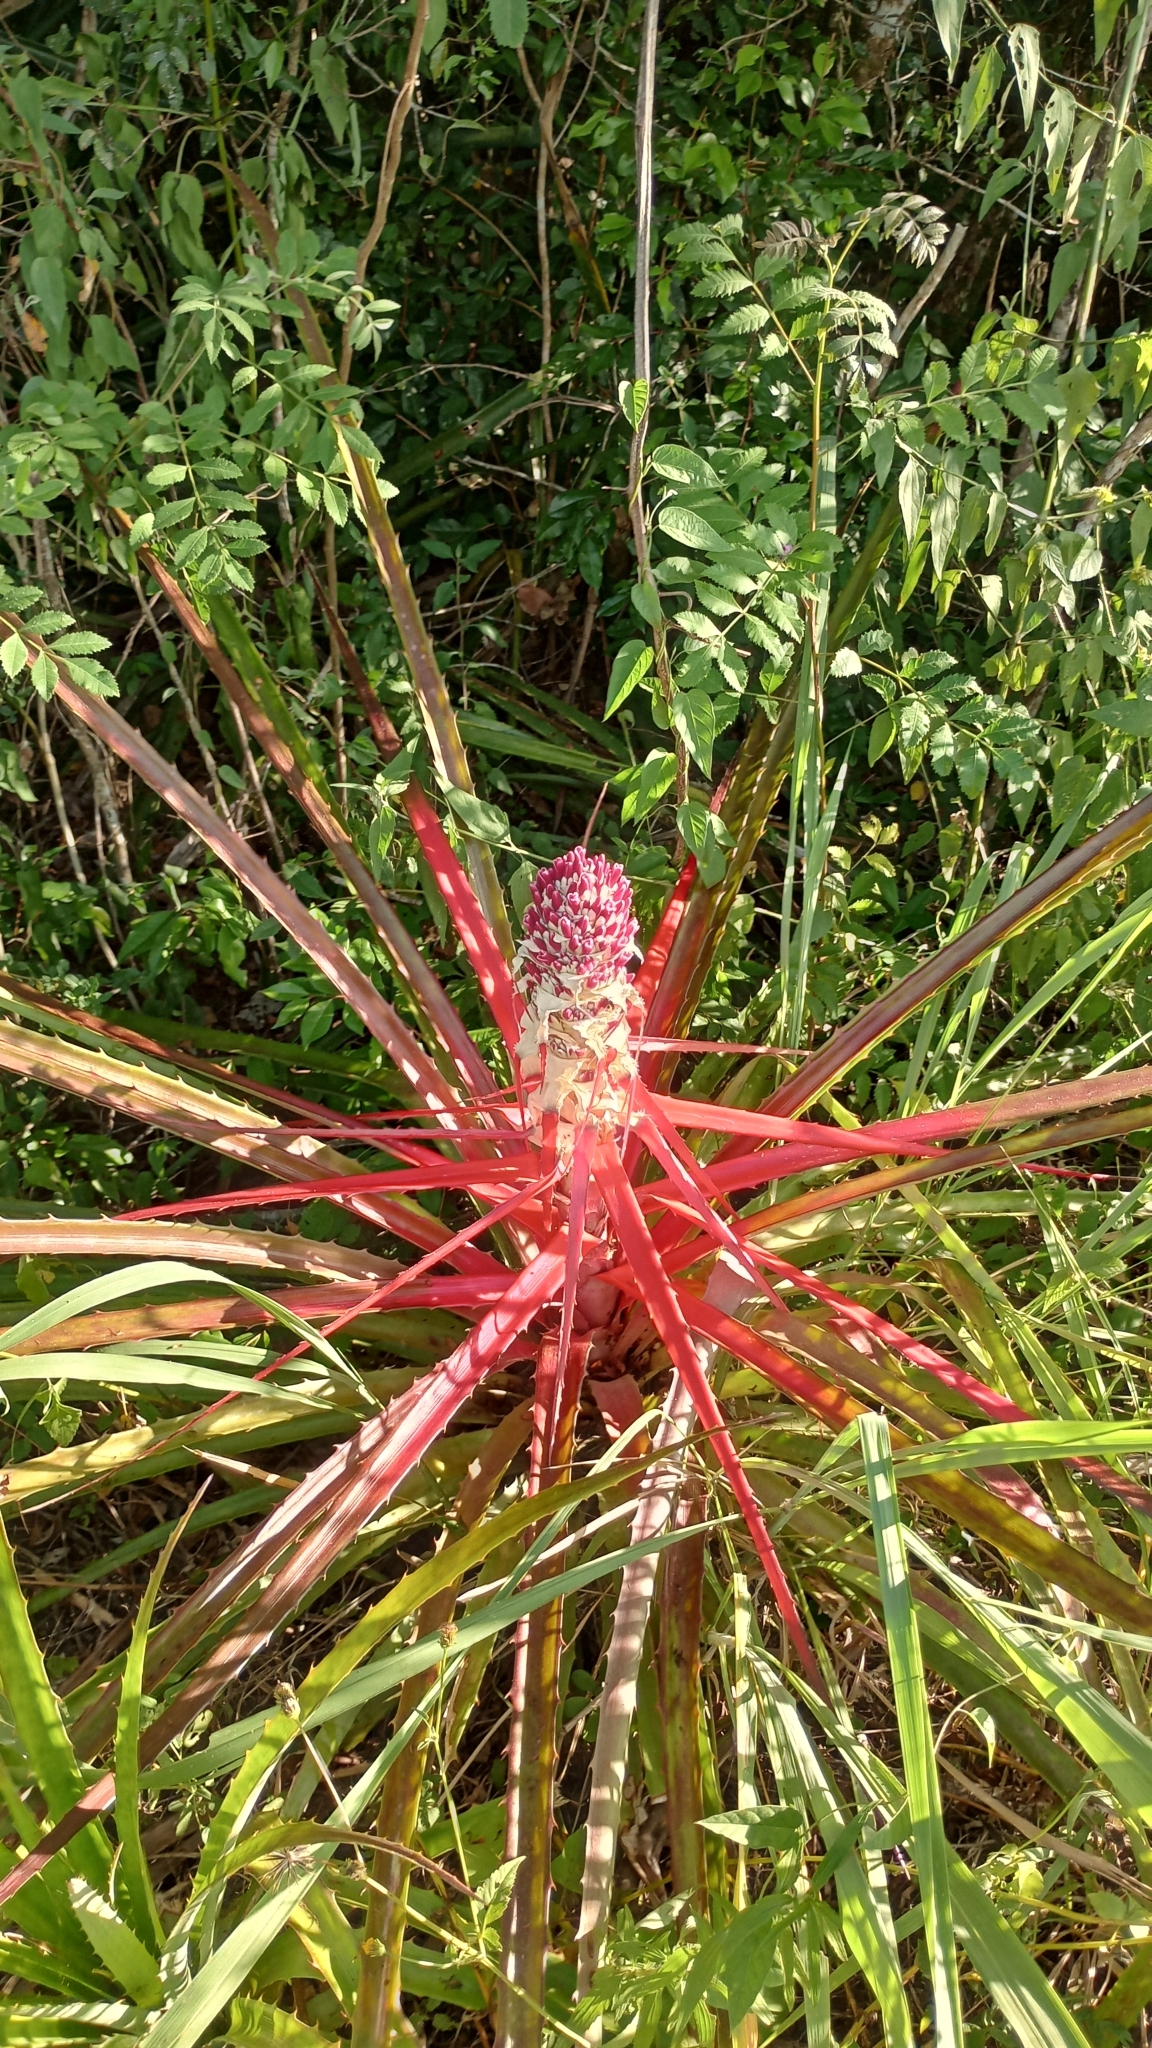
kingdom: Plantae
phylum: Tracheophyta
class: Liliopsida
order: Poales
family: Bromeliaceae
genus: Bromelia
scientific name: Bromelia balansae
